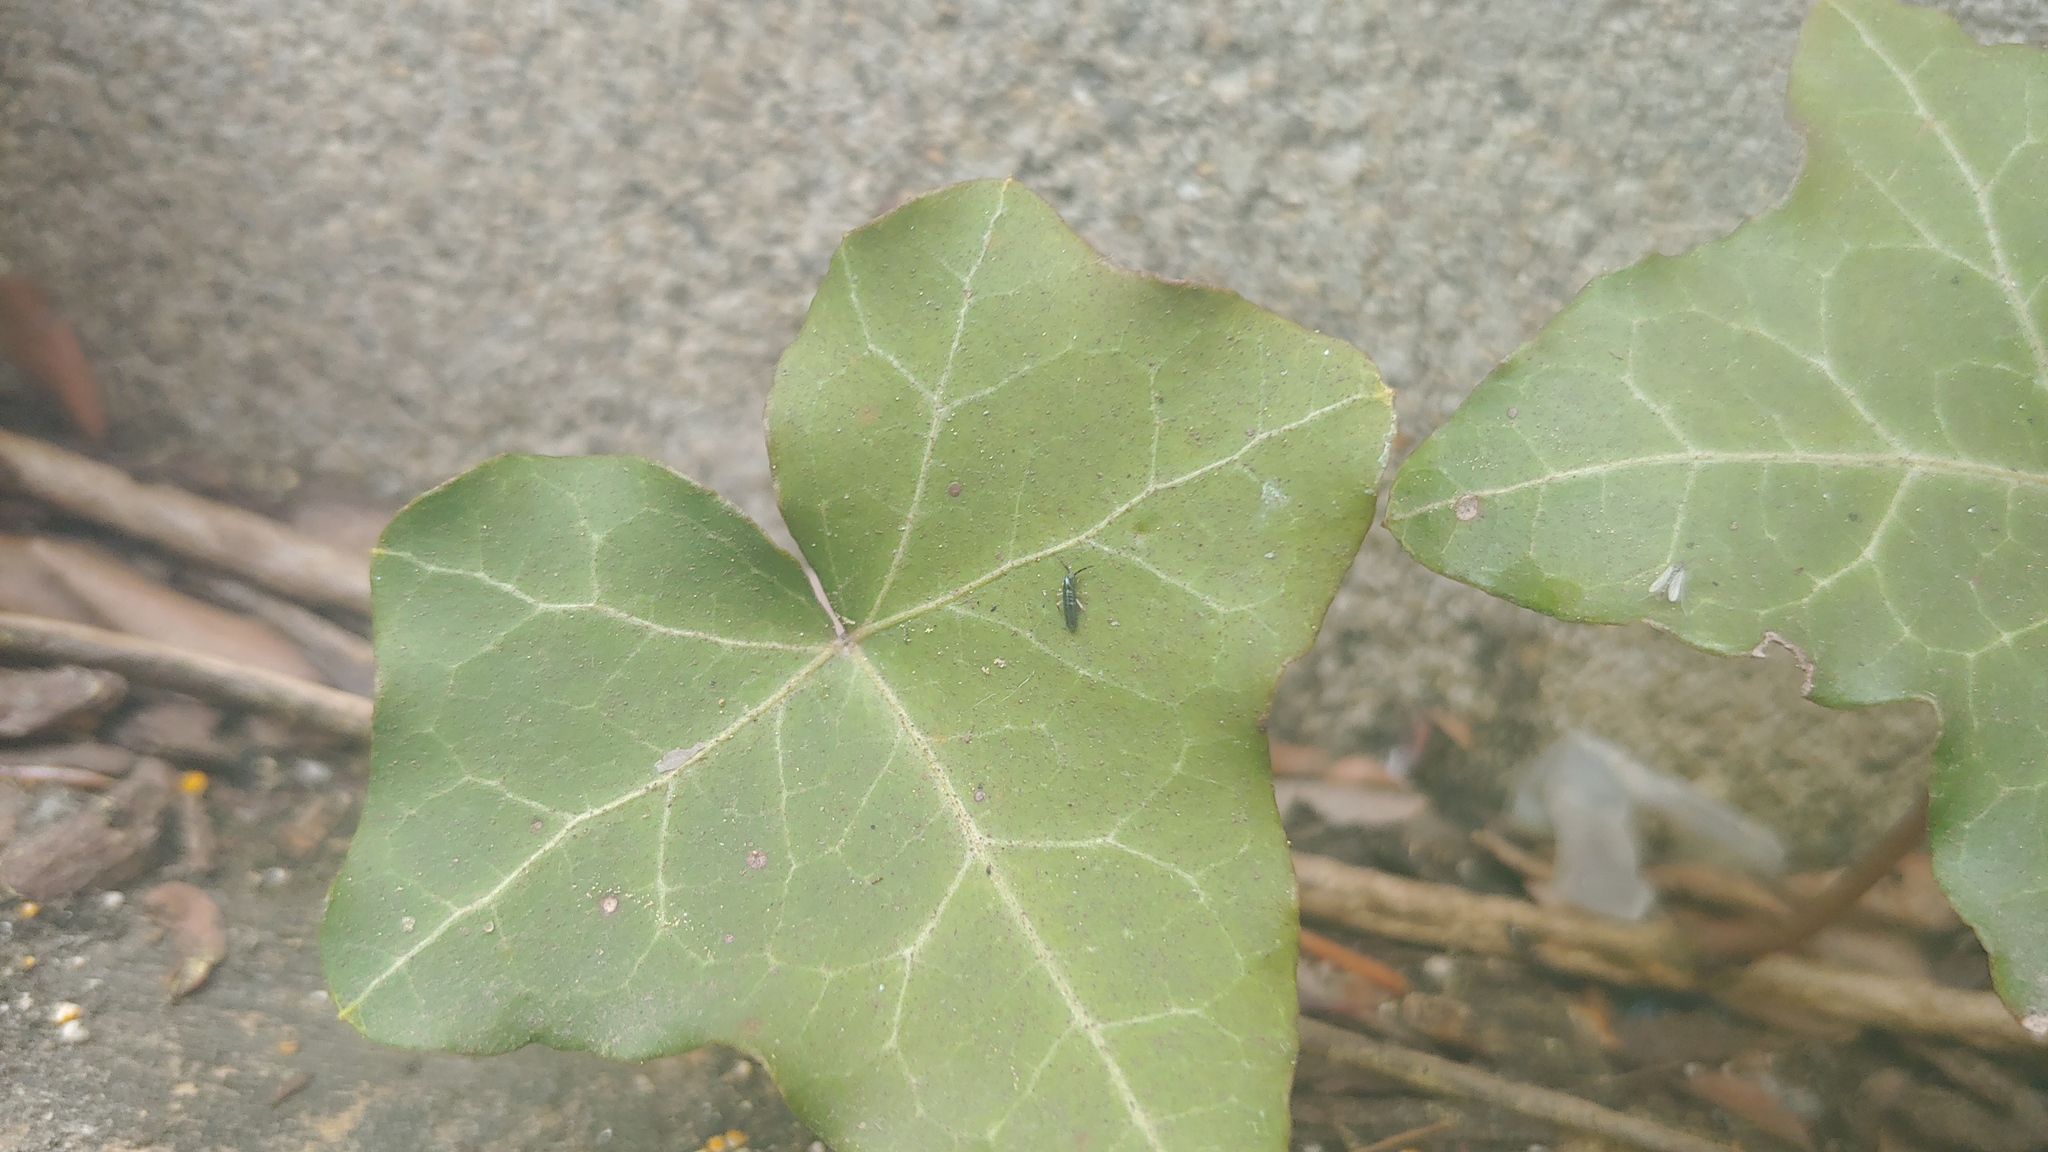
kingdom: Animalia
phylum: Arthropoda
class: Collembola
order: Entomobryomorpha
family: Entomobryidae
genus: Lepidocyrtus
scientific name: Lepidocyrtus paradoxus
